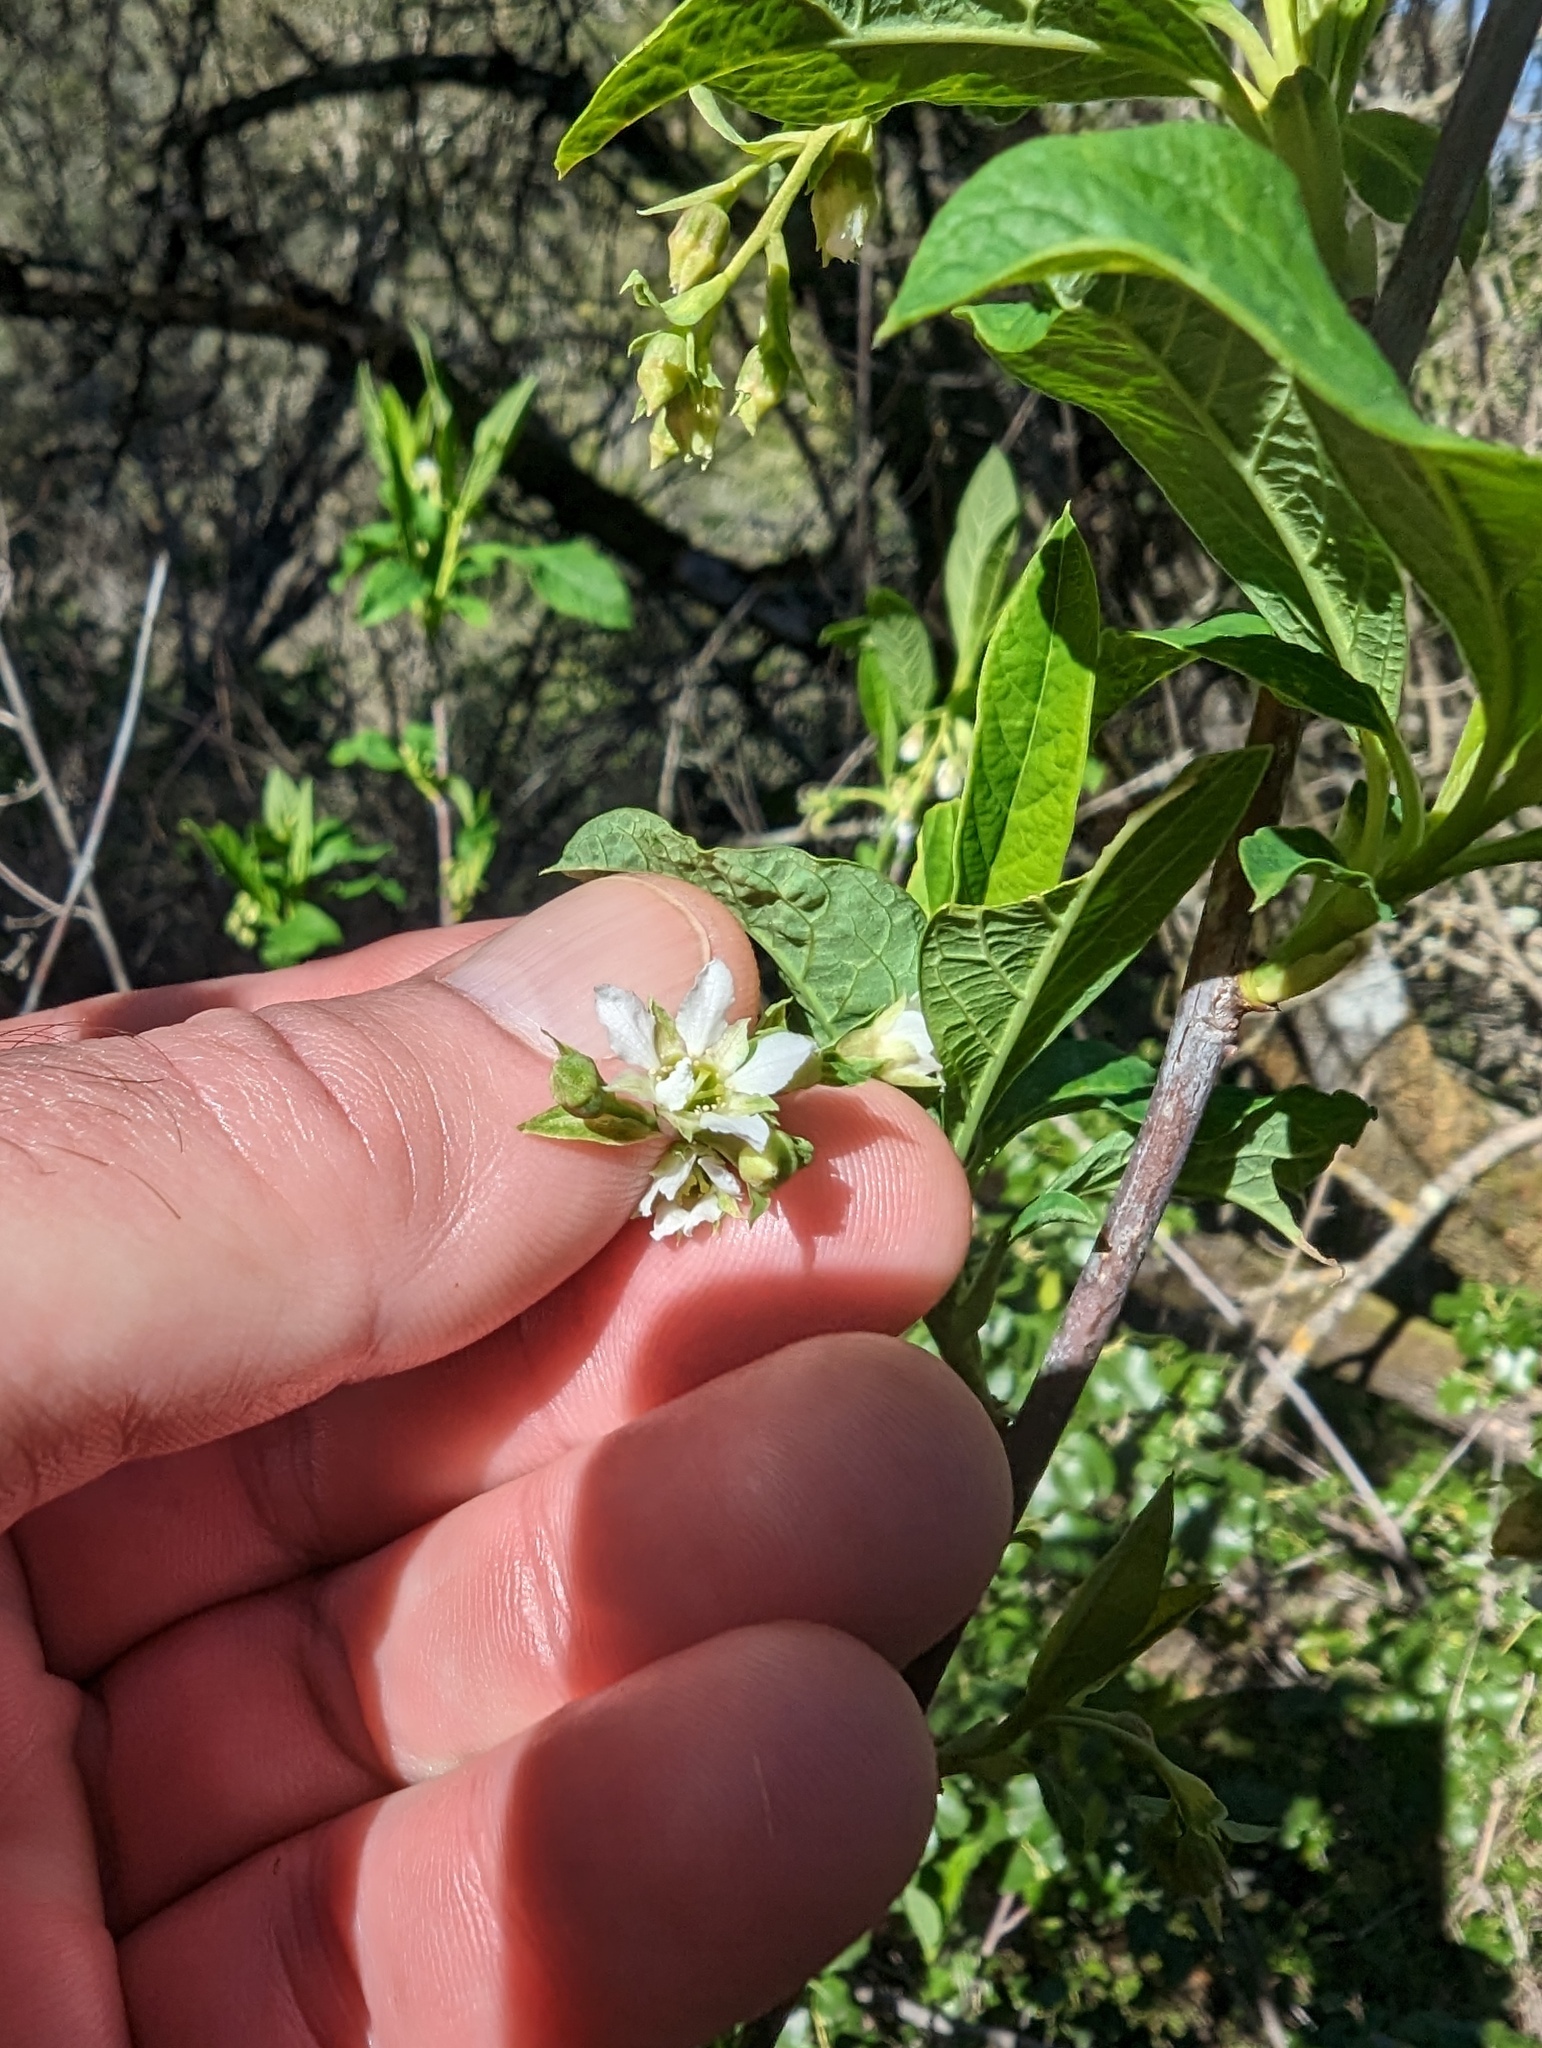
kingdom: Plantae
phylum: Tracheophyta
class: Magnoliopsida
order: Rosales
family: Rosaceae
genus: Oemleria
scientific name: Oemleria cerasiformis
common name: Osoberry
